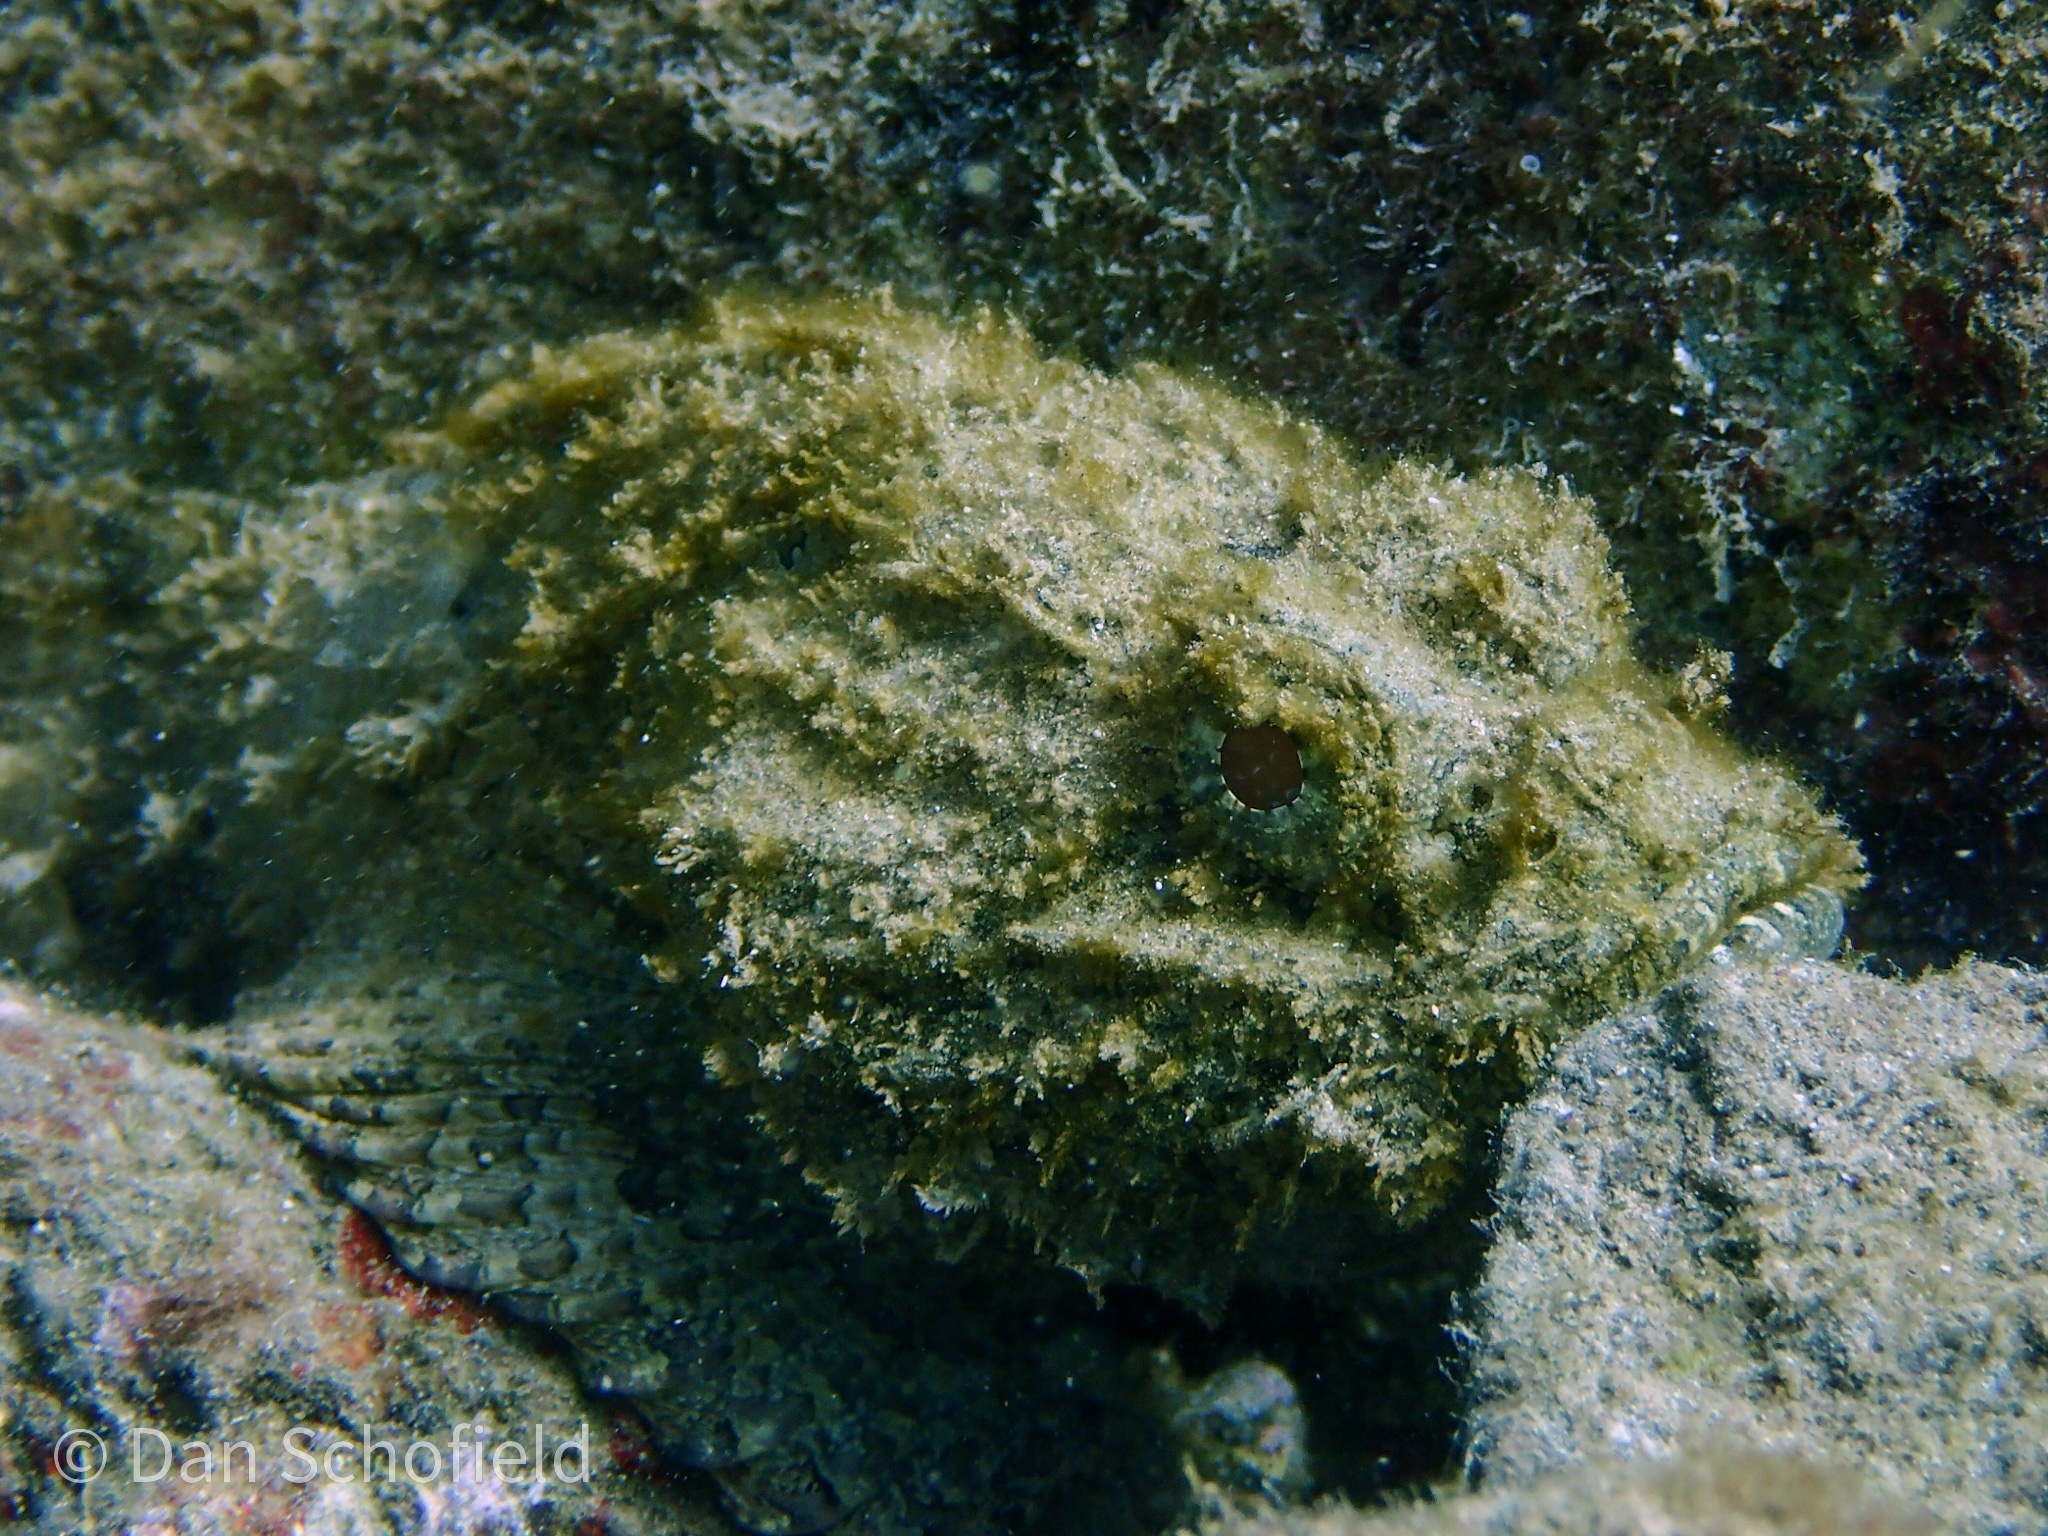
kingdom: Animalia
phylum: Chordata
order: Scorpaeniformes
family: Scorpaenidae
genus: Scorpaena
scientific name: Scorpaena plumieri
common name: Spotted scorpionfish
